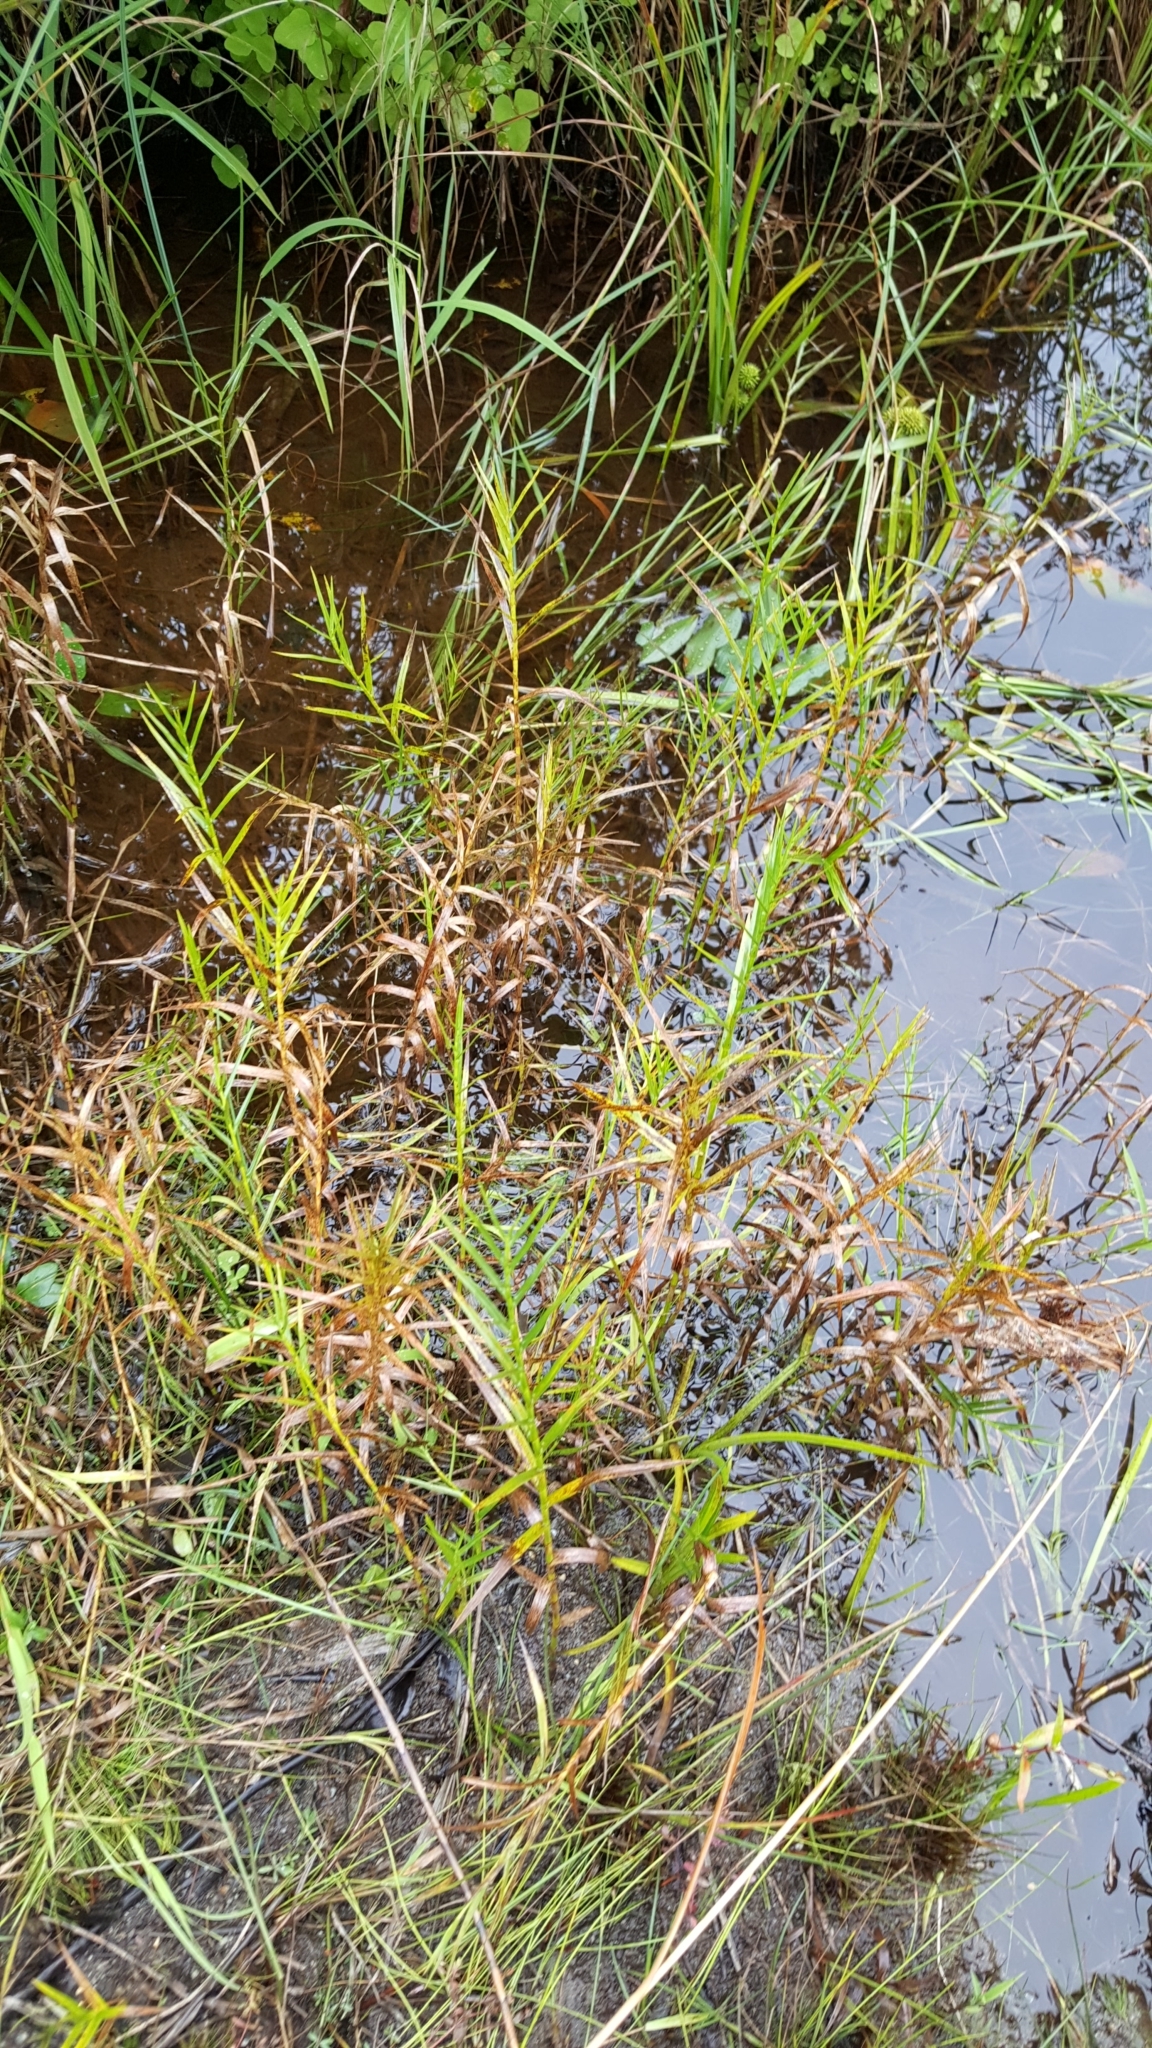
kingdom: Plantae
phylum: Tracheophyta
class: Liliopsida
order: Poales
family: Cyperaceae
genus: Dulichium
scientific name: Dulichium arundinaceum
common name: Three-way sedge
